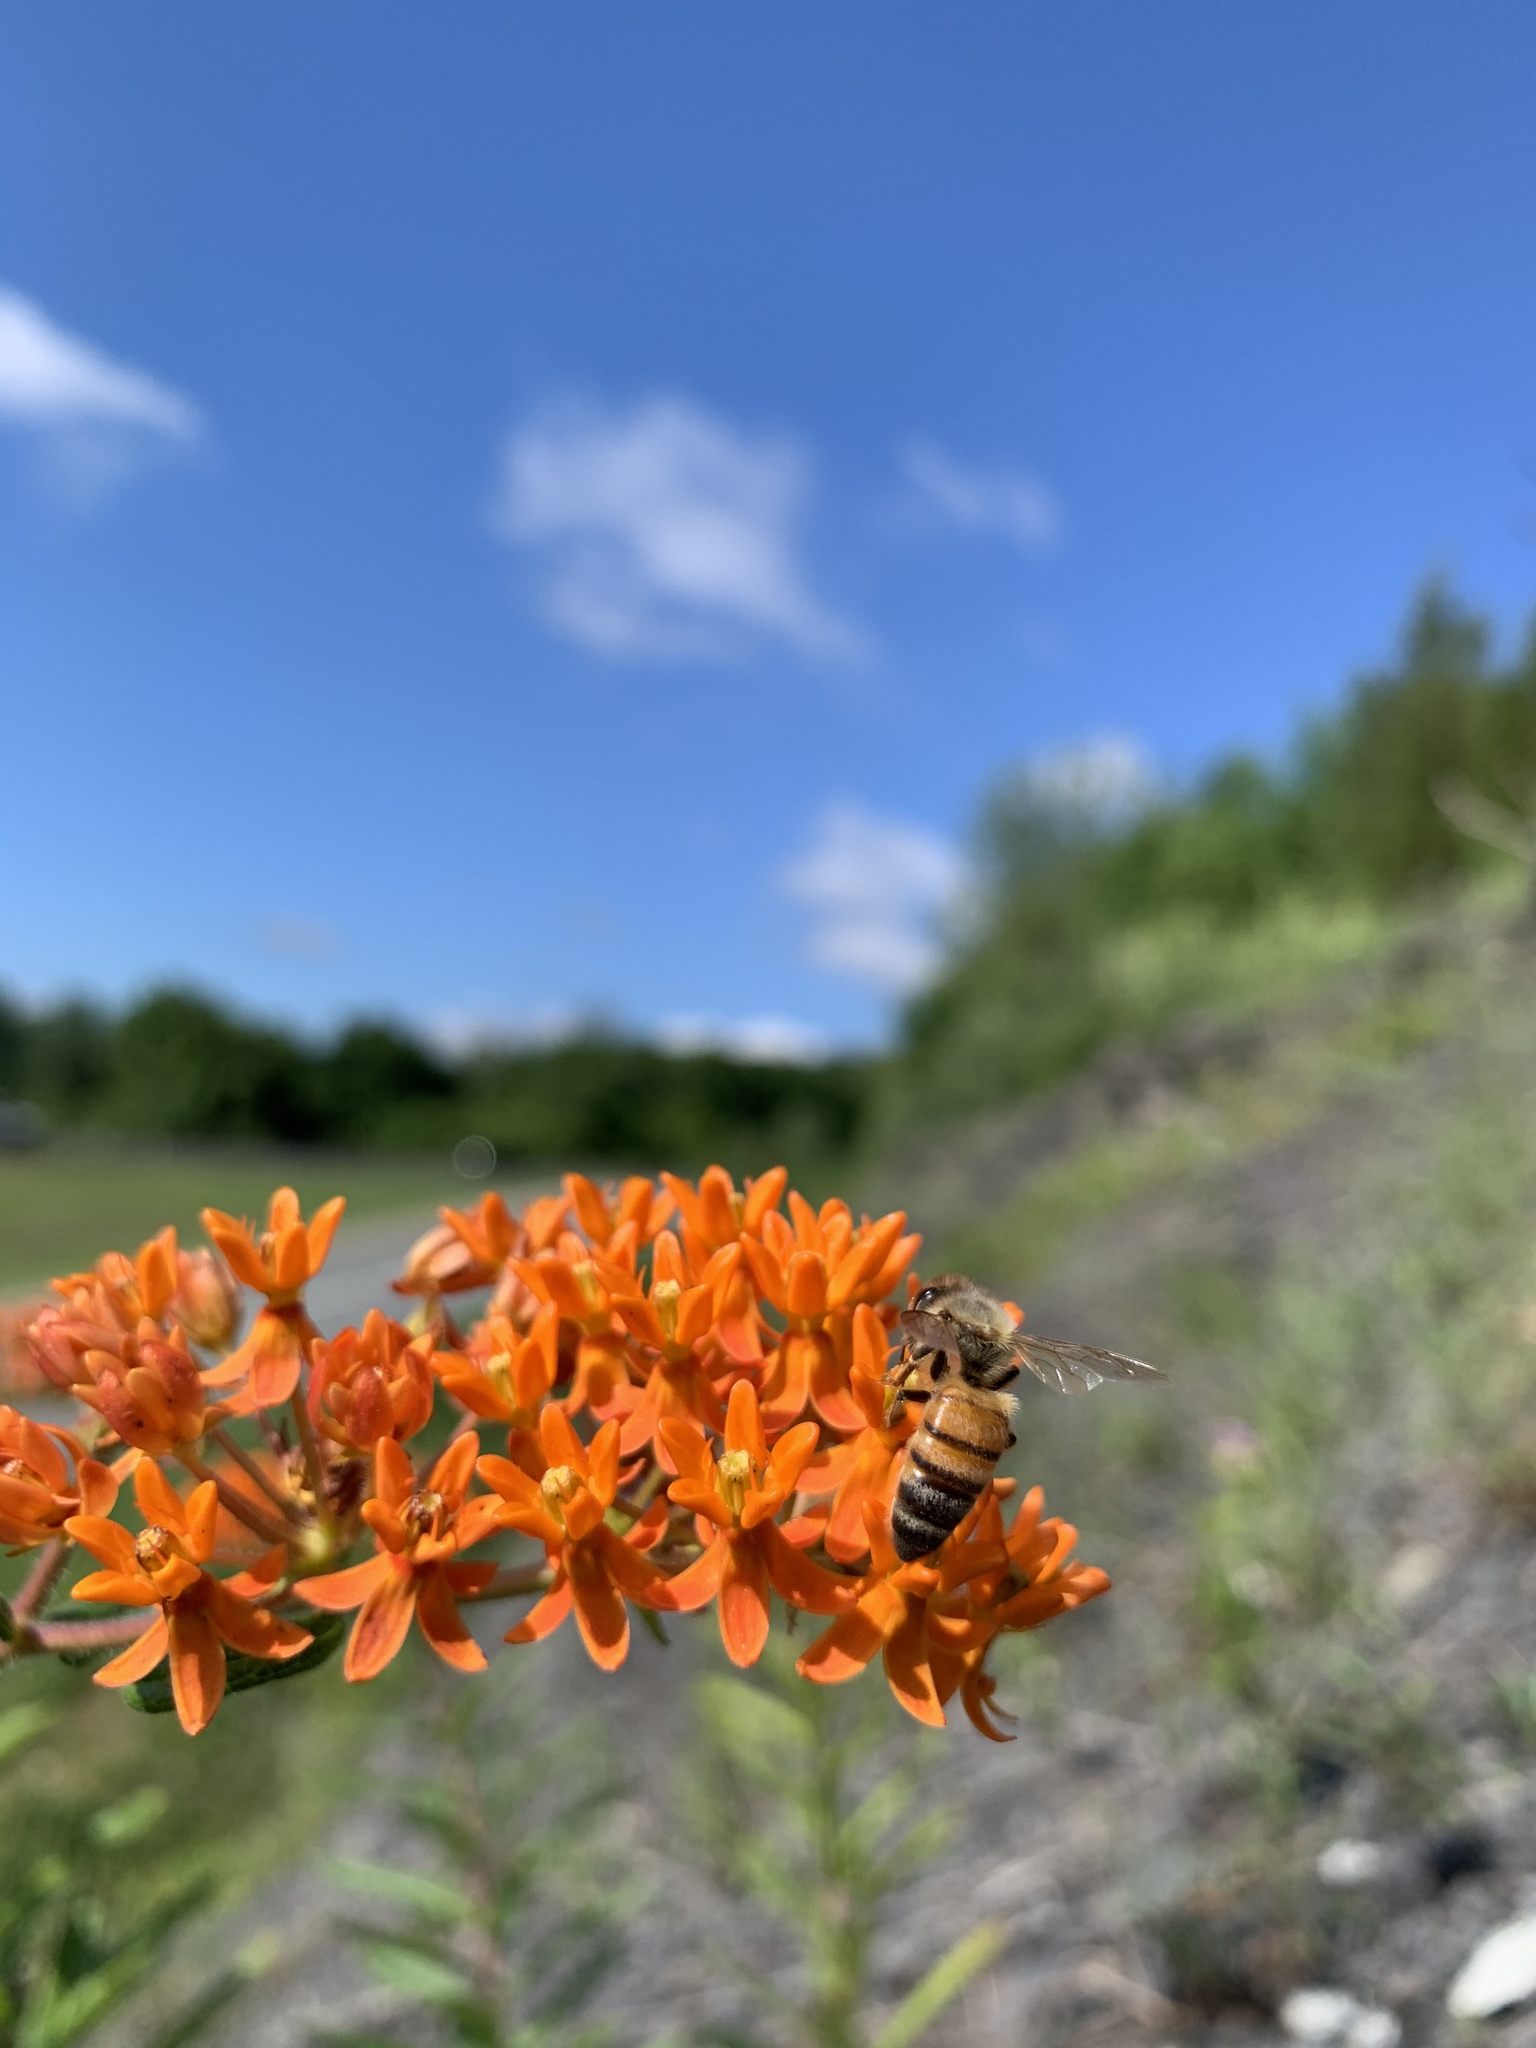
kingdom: Plantae
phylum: Tracheophyta
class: Magnoliopsida
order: Gentianales
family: Apocynaceae
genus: Asclepias
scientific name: Asclepias tuberosa
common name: Butterfly milkweed
